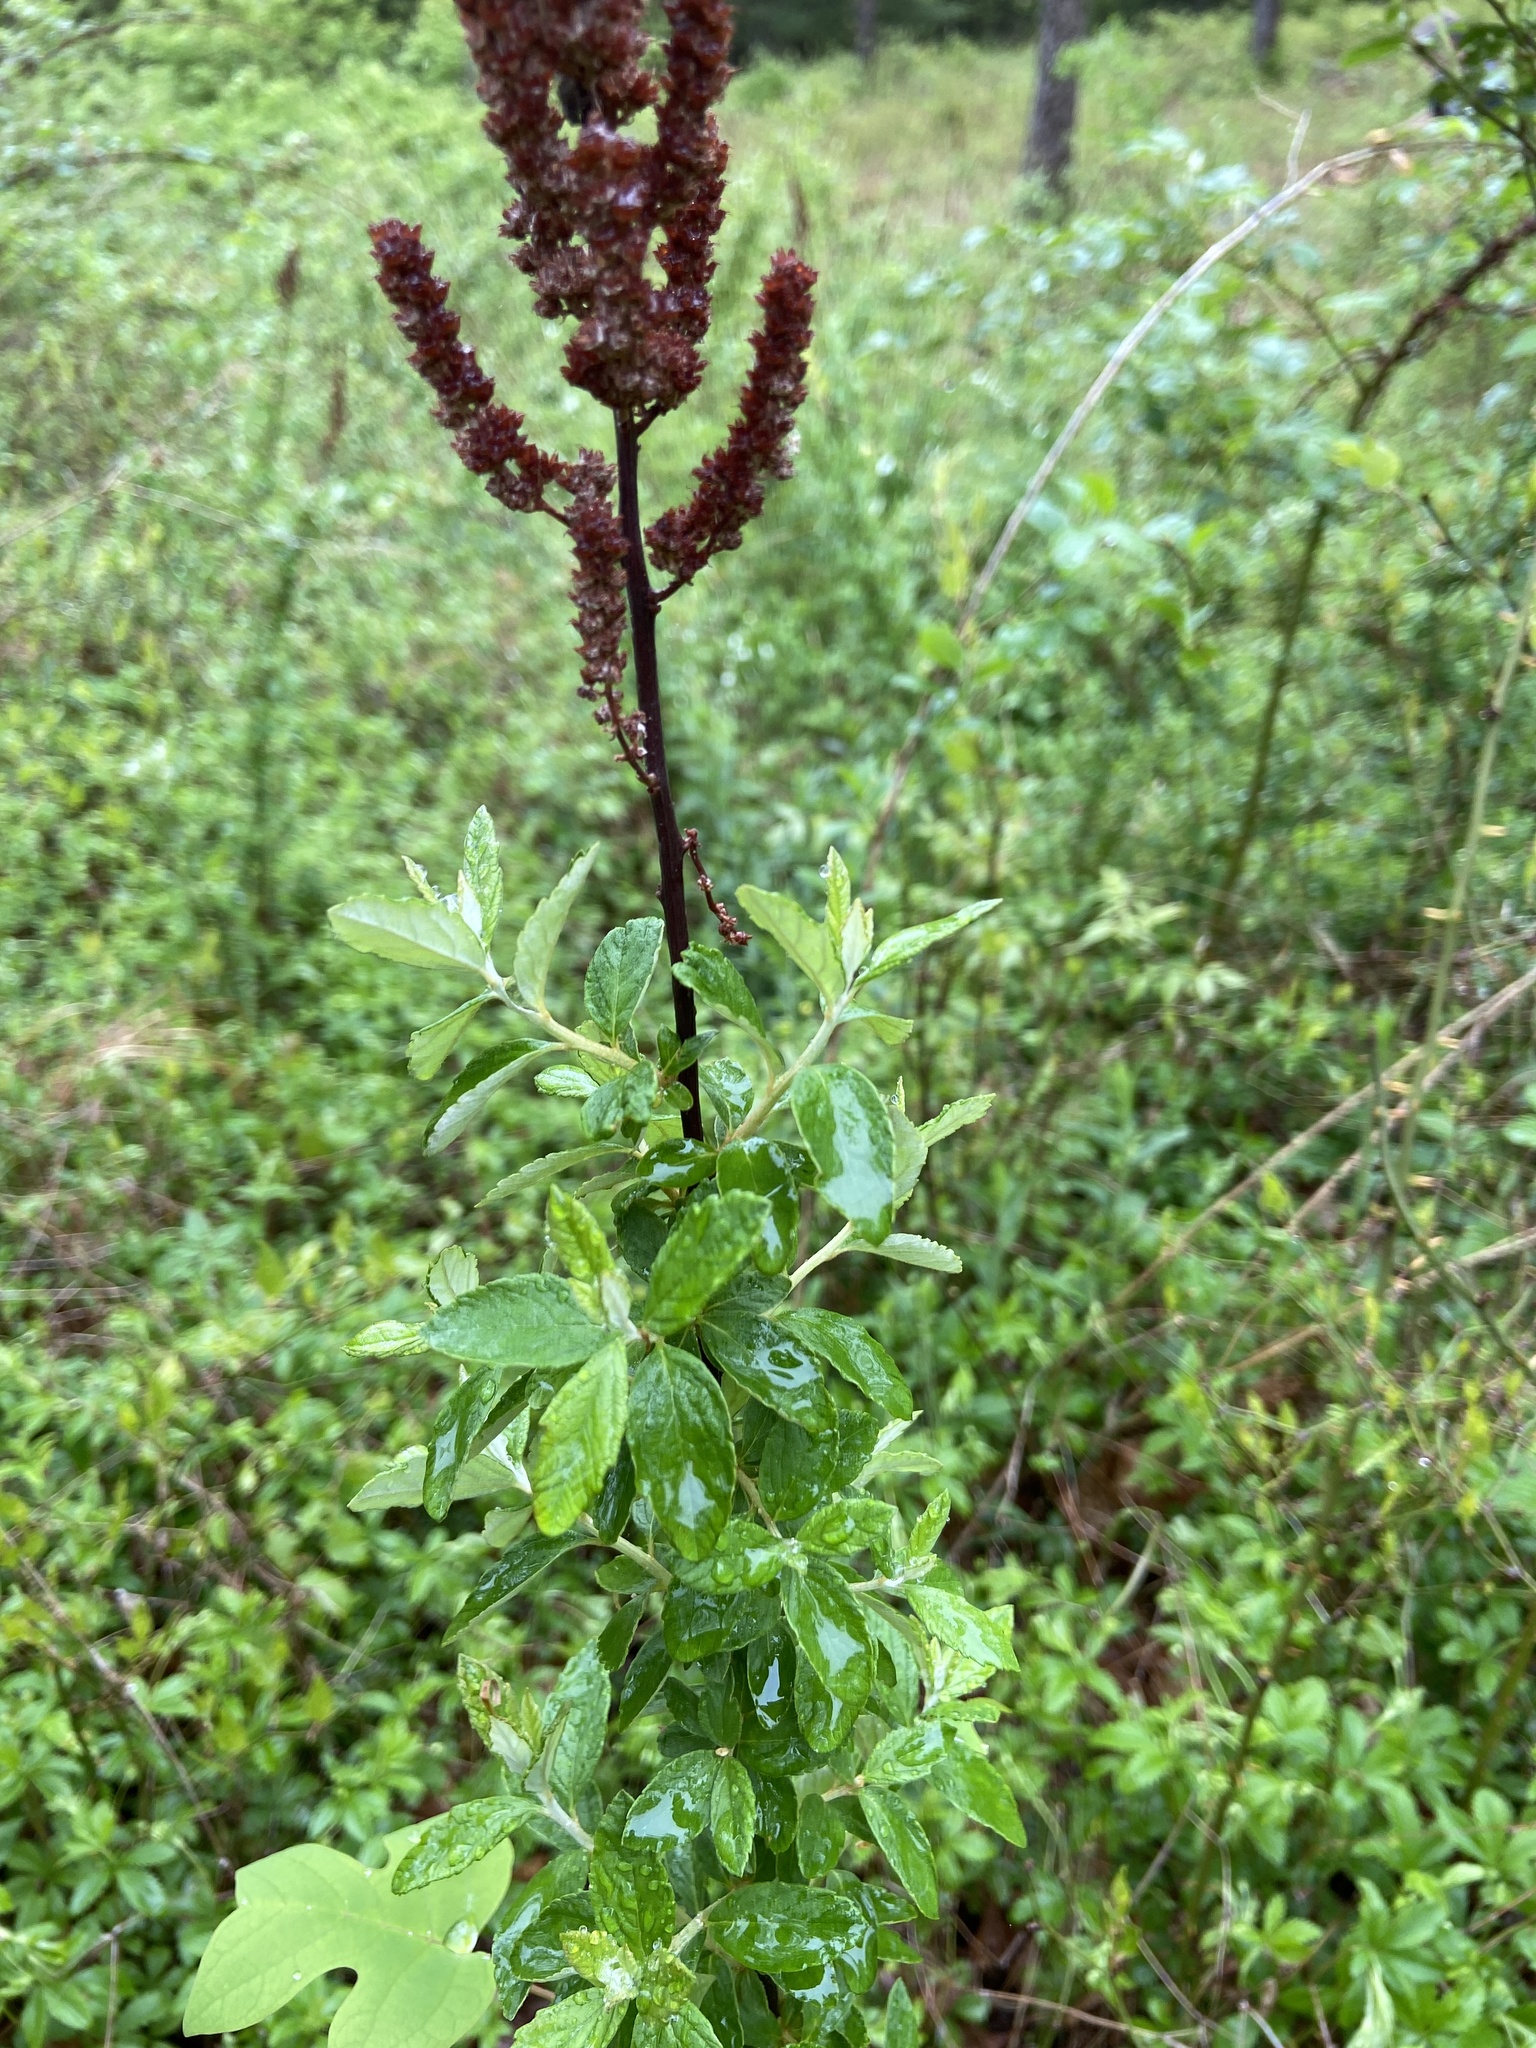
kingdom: Plantae
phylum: Tracheophyta
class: Magnoliopsida
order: Rosales
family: Rosaceae
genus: Spiraea
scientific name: Spiraea tomentosa
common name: Hardhack
